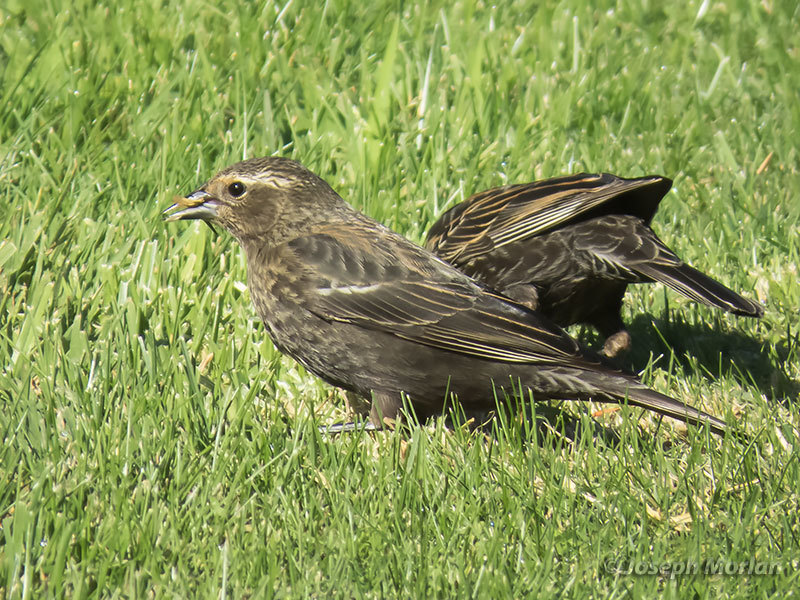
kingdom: Animalia
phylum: Chordata
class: Aves
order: Passeriformes
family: Icteridae
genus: Agelaius
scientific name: Agelaius phoeniceus
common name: Red-winged blackbird
